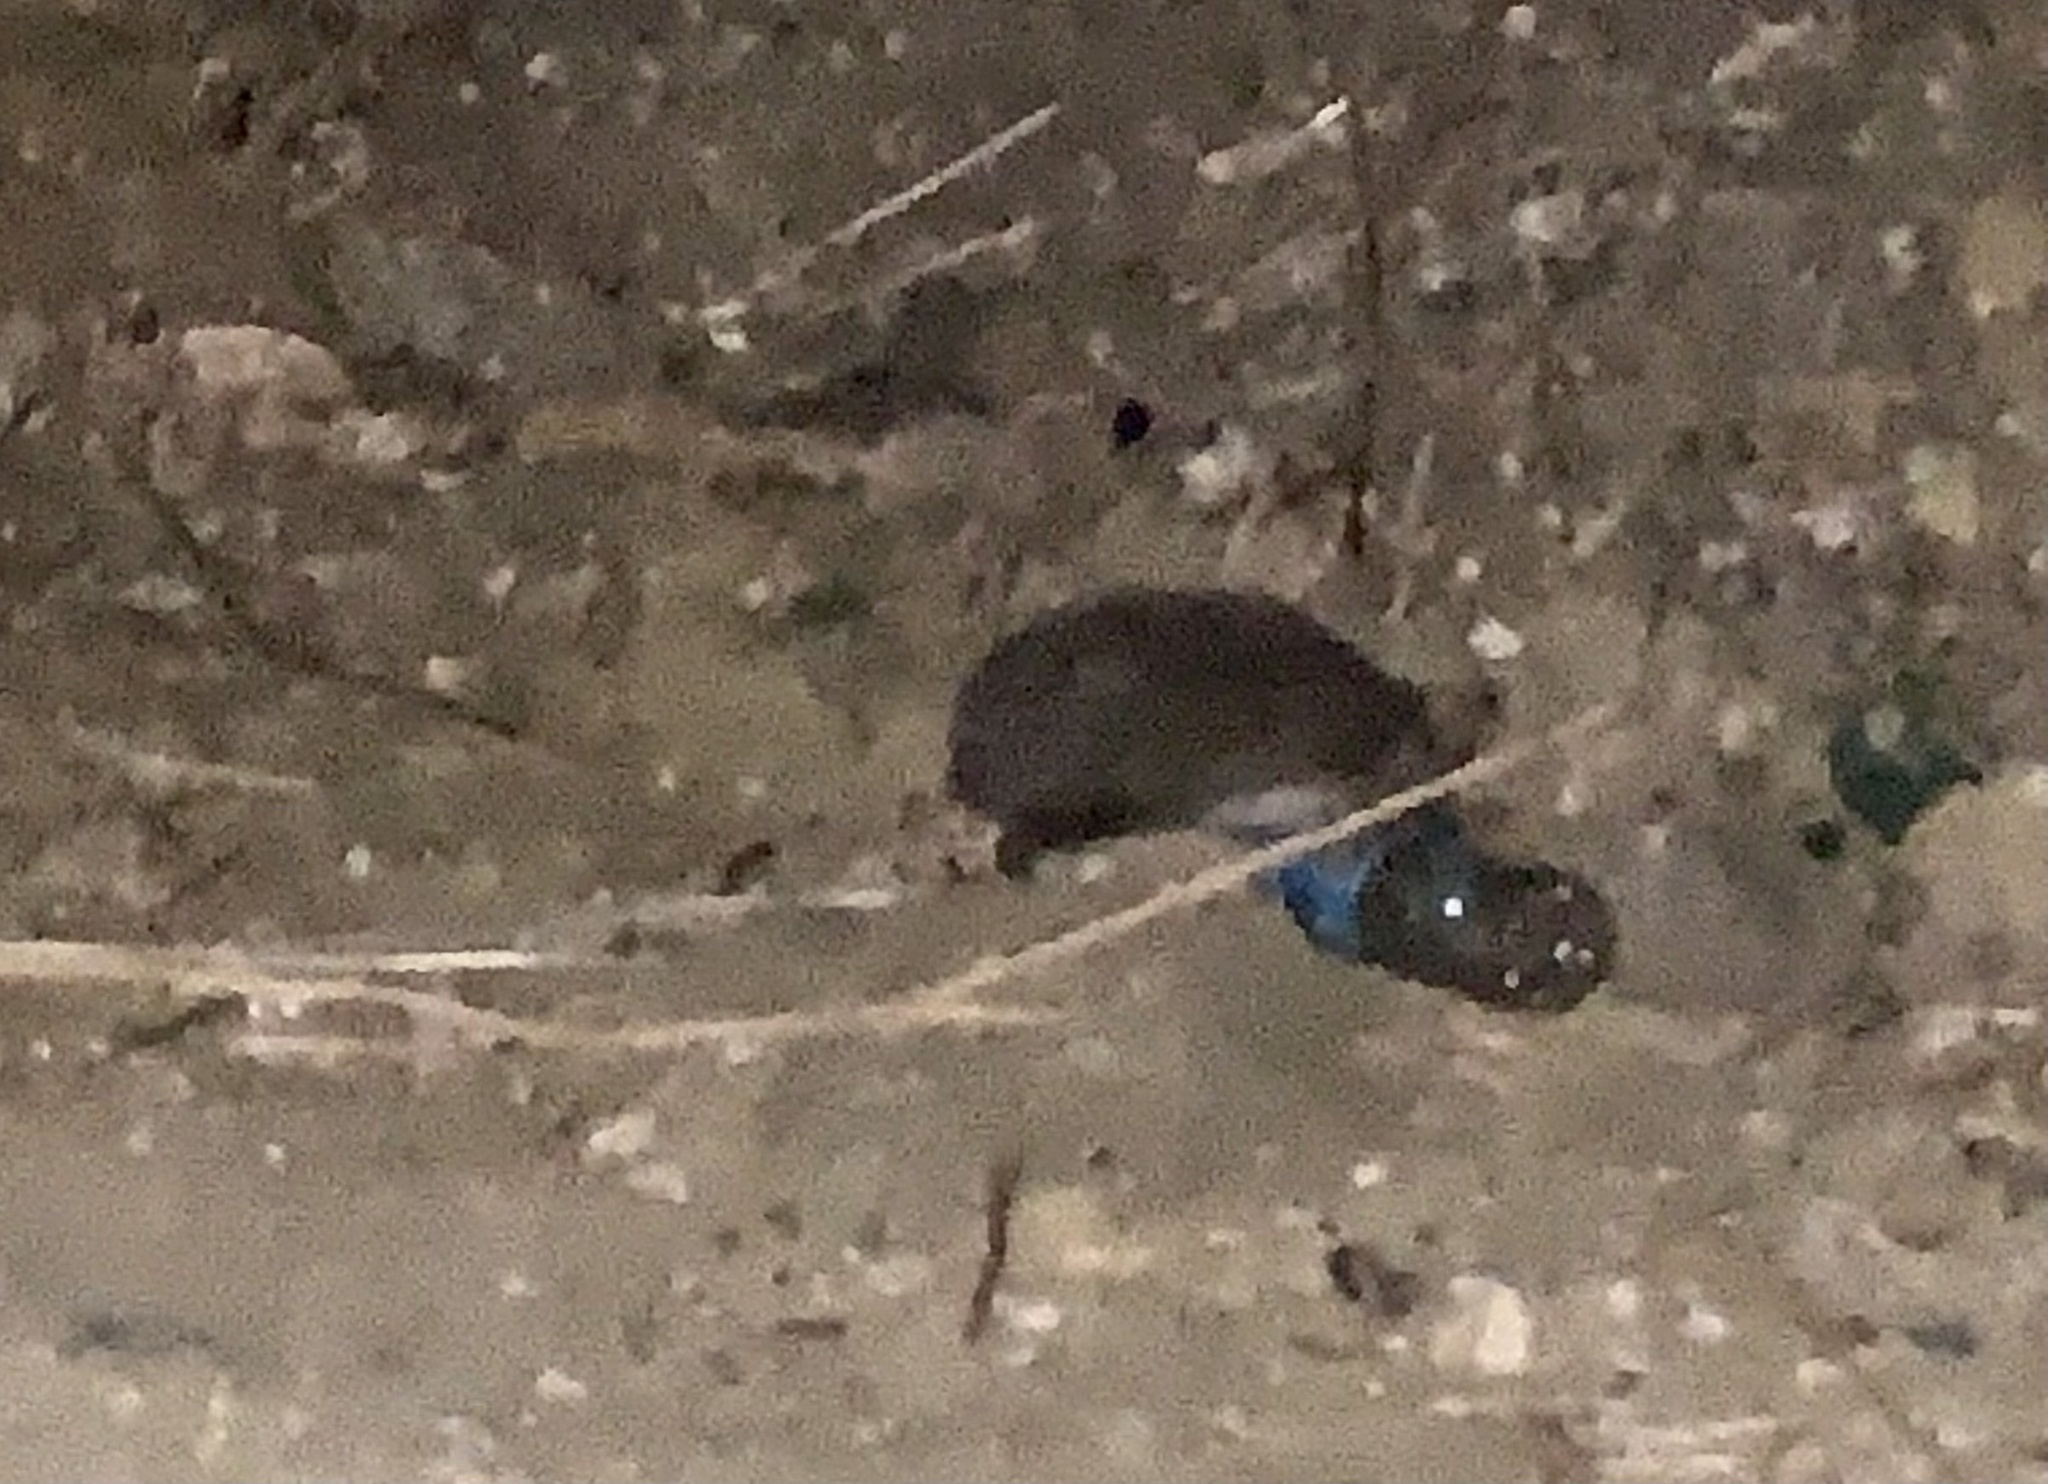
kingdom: Animalia
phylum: Chordata
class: Mammalia
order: Erinaceomorpha
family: Erinaceidae
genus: Erinaceus
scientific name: Erinaceus roumanicus
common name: Northern white-breasted hedgehog
